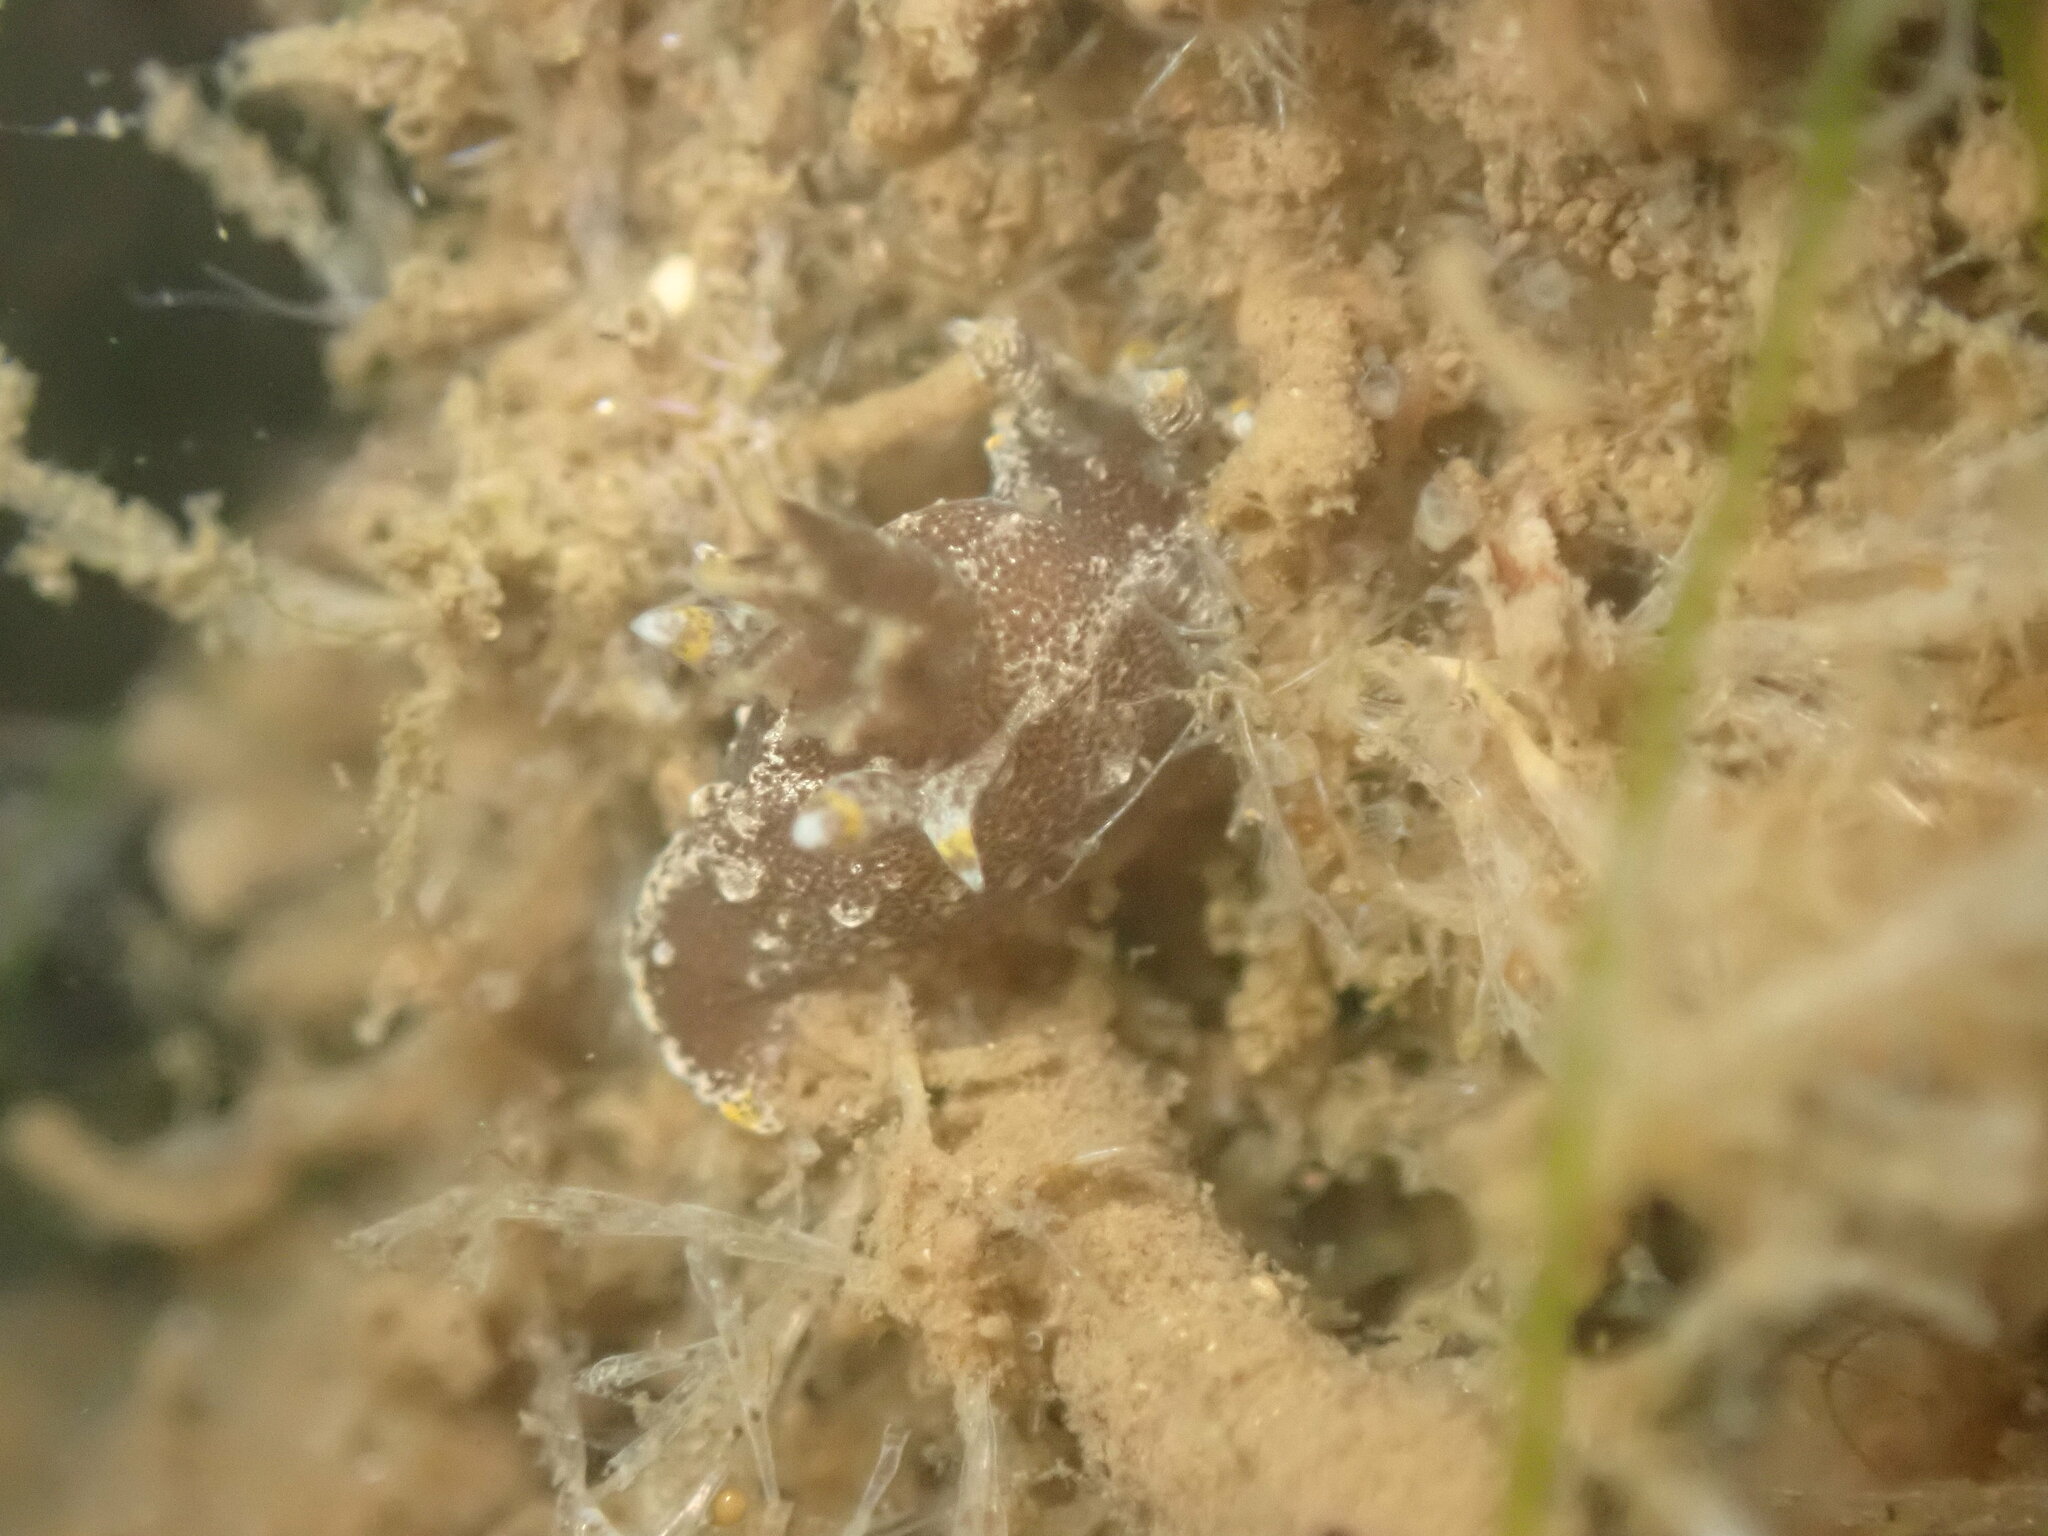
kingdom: Animalia
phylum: Mollusca
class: Gastropoda
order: Nudibranchia
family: Polyceridae
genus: Polycera
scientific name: Polycera hedgpethi
